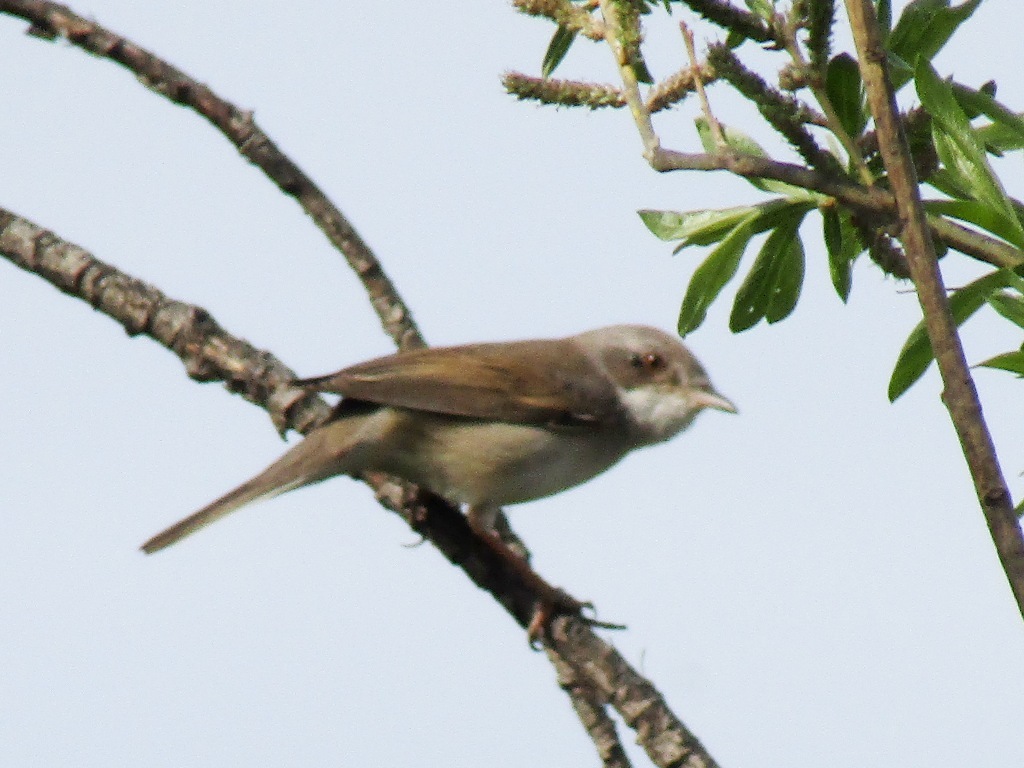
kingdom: Animalia
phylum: Chordata
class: Aves
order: Passeriformes
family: Sylviidae
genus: Sylvia
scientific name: Sylvia communis
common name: Common whitethroat
